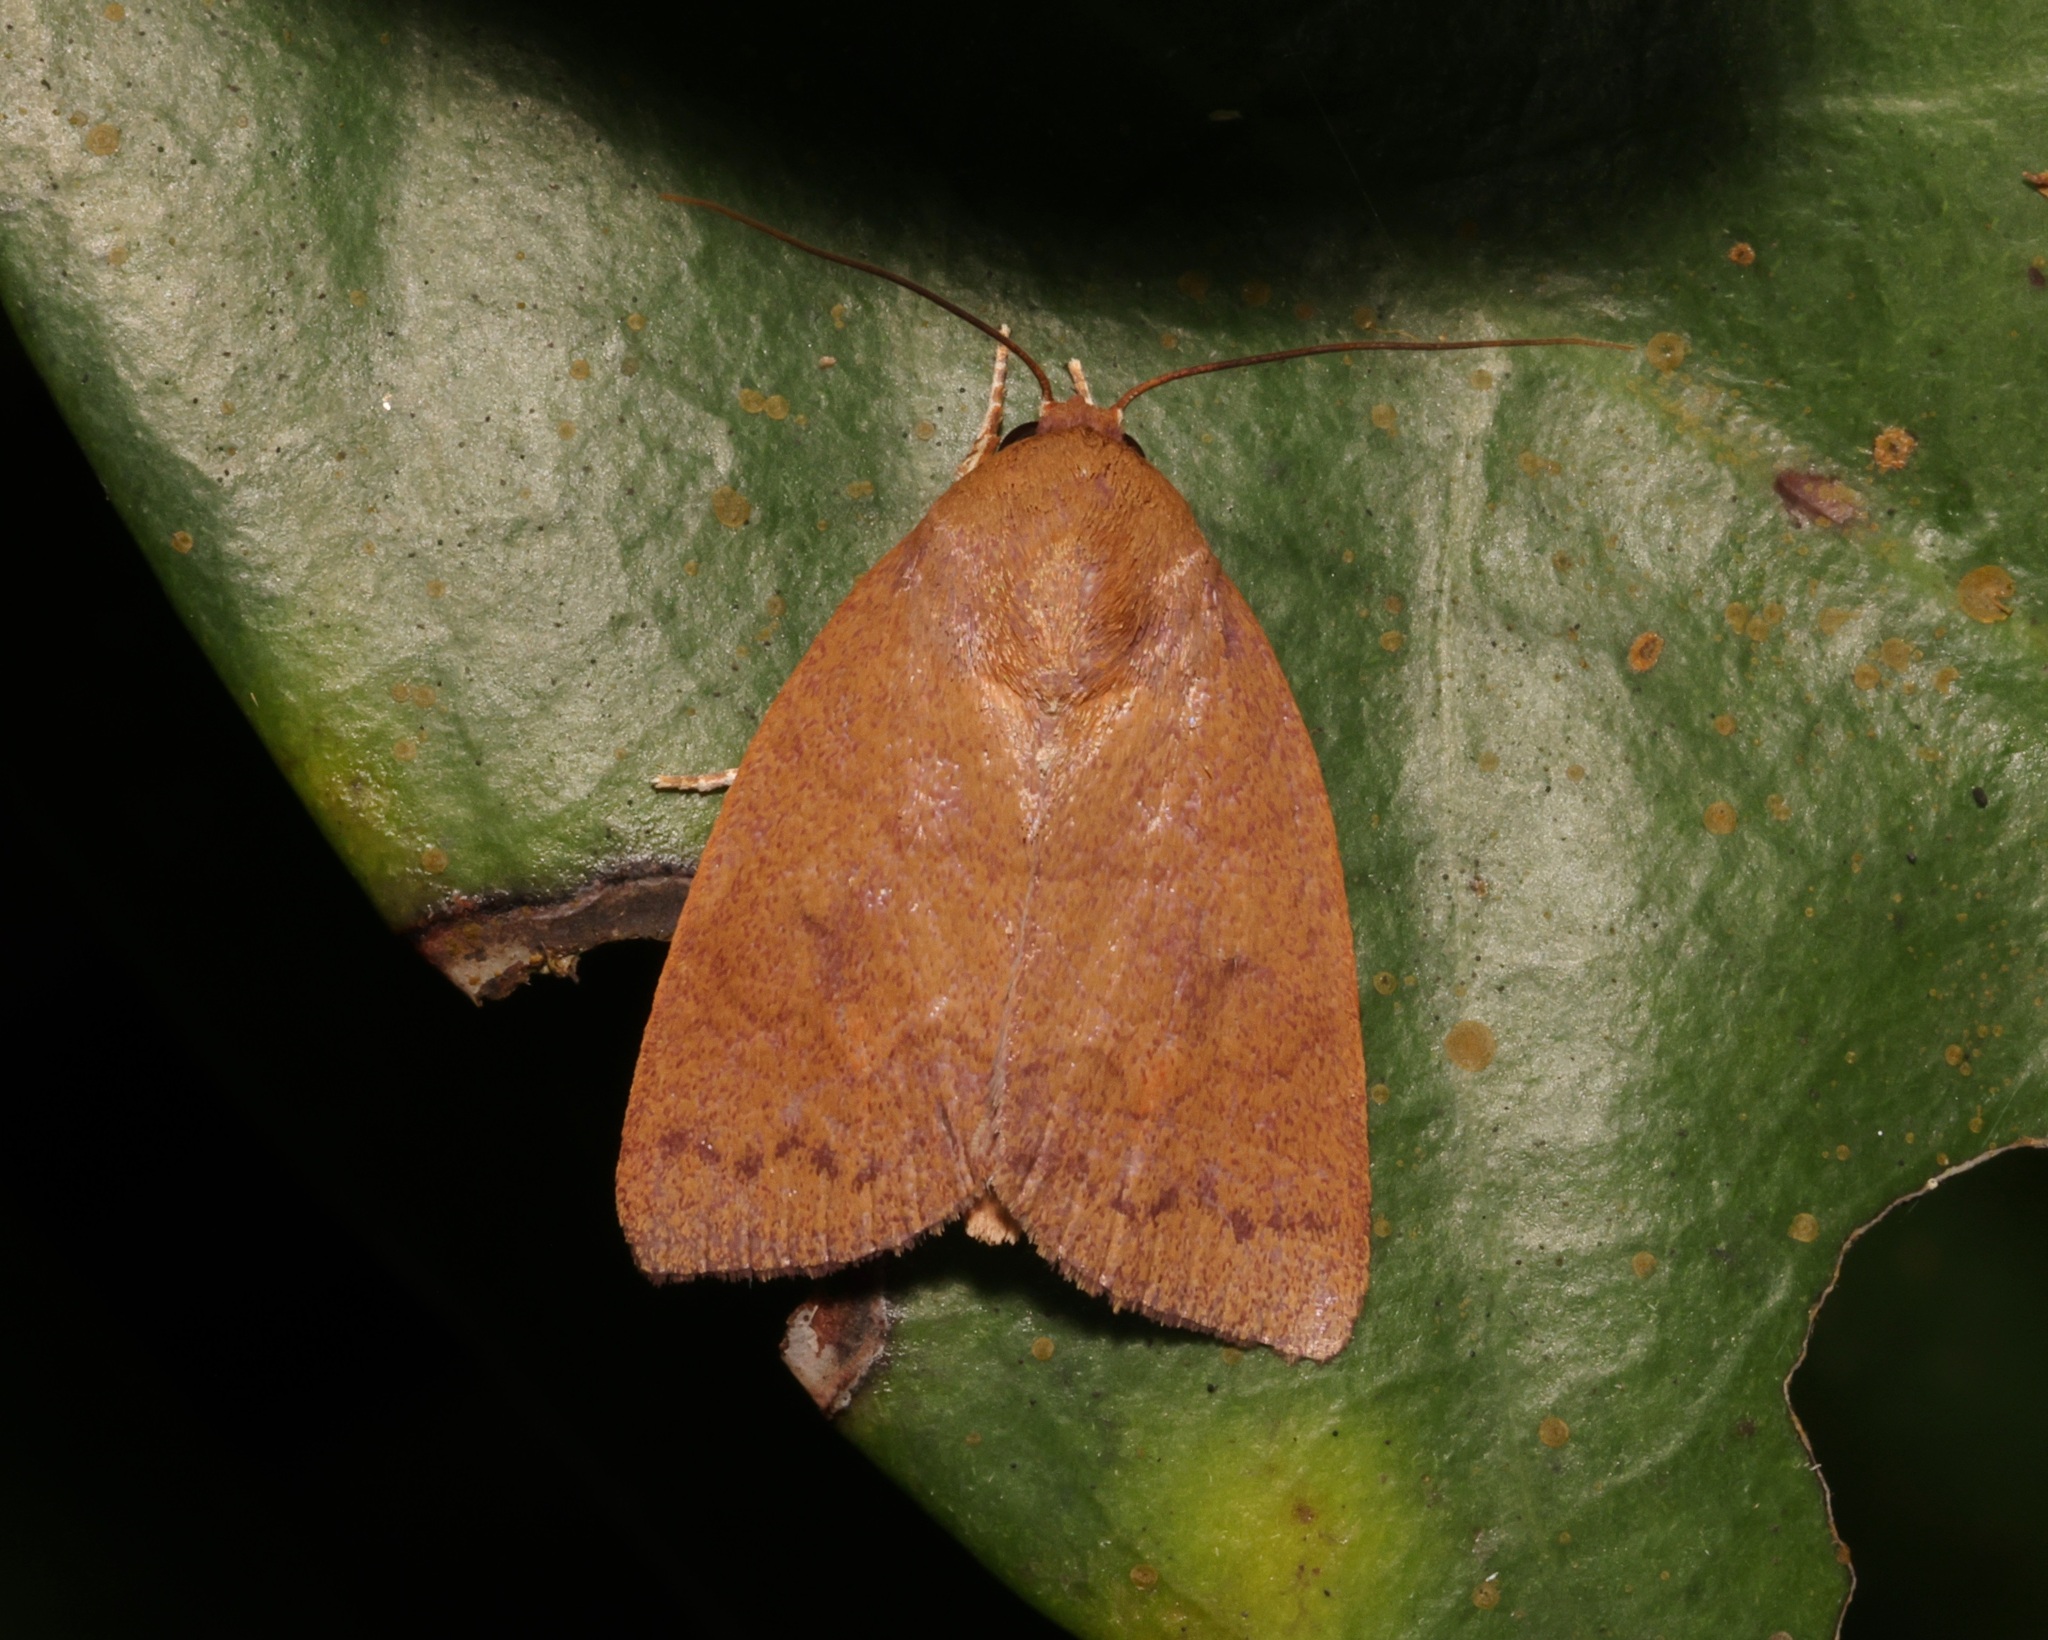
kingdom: Animalia
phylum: Arthropoda
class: Insecta
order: Lepidoptera
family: Nolidae
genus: Calymera
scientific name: Calymera
